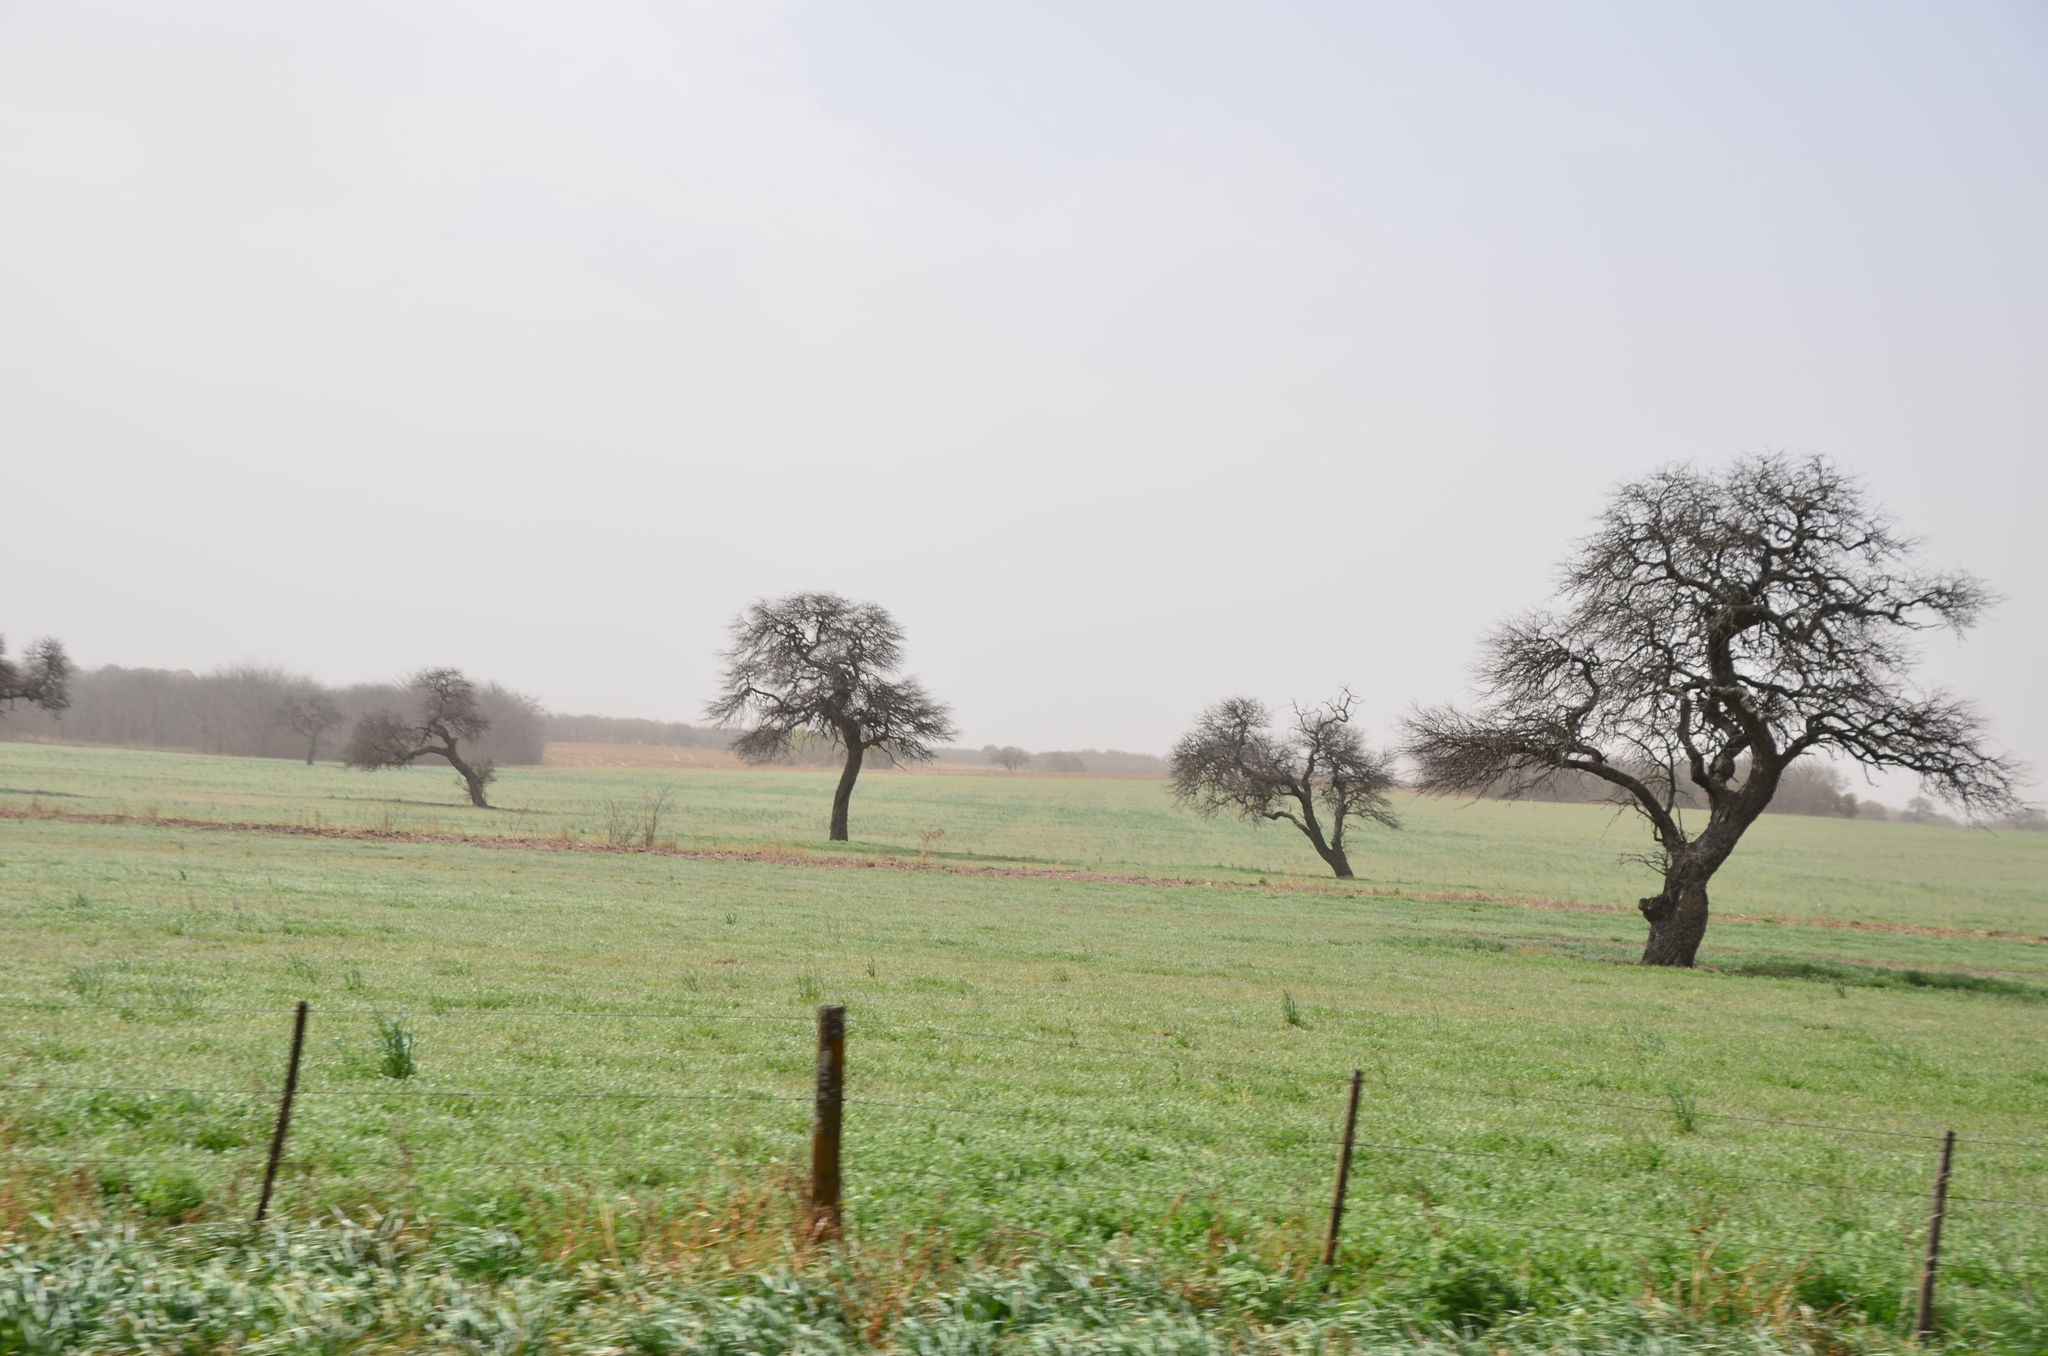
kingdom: Plantae
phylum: Tracheophyta
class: Magnoliopsida
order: Fabales
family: Fabaceae
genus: Vachellia
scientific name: Vachellia caven
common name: Roman cassie
